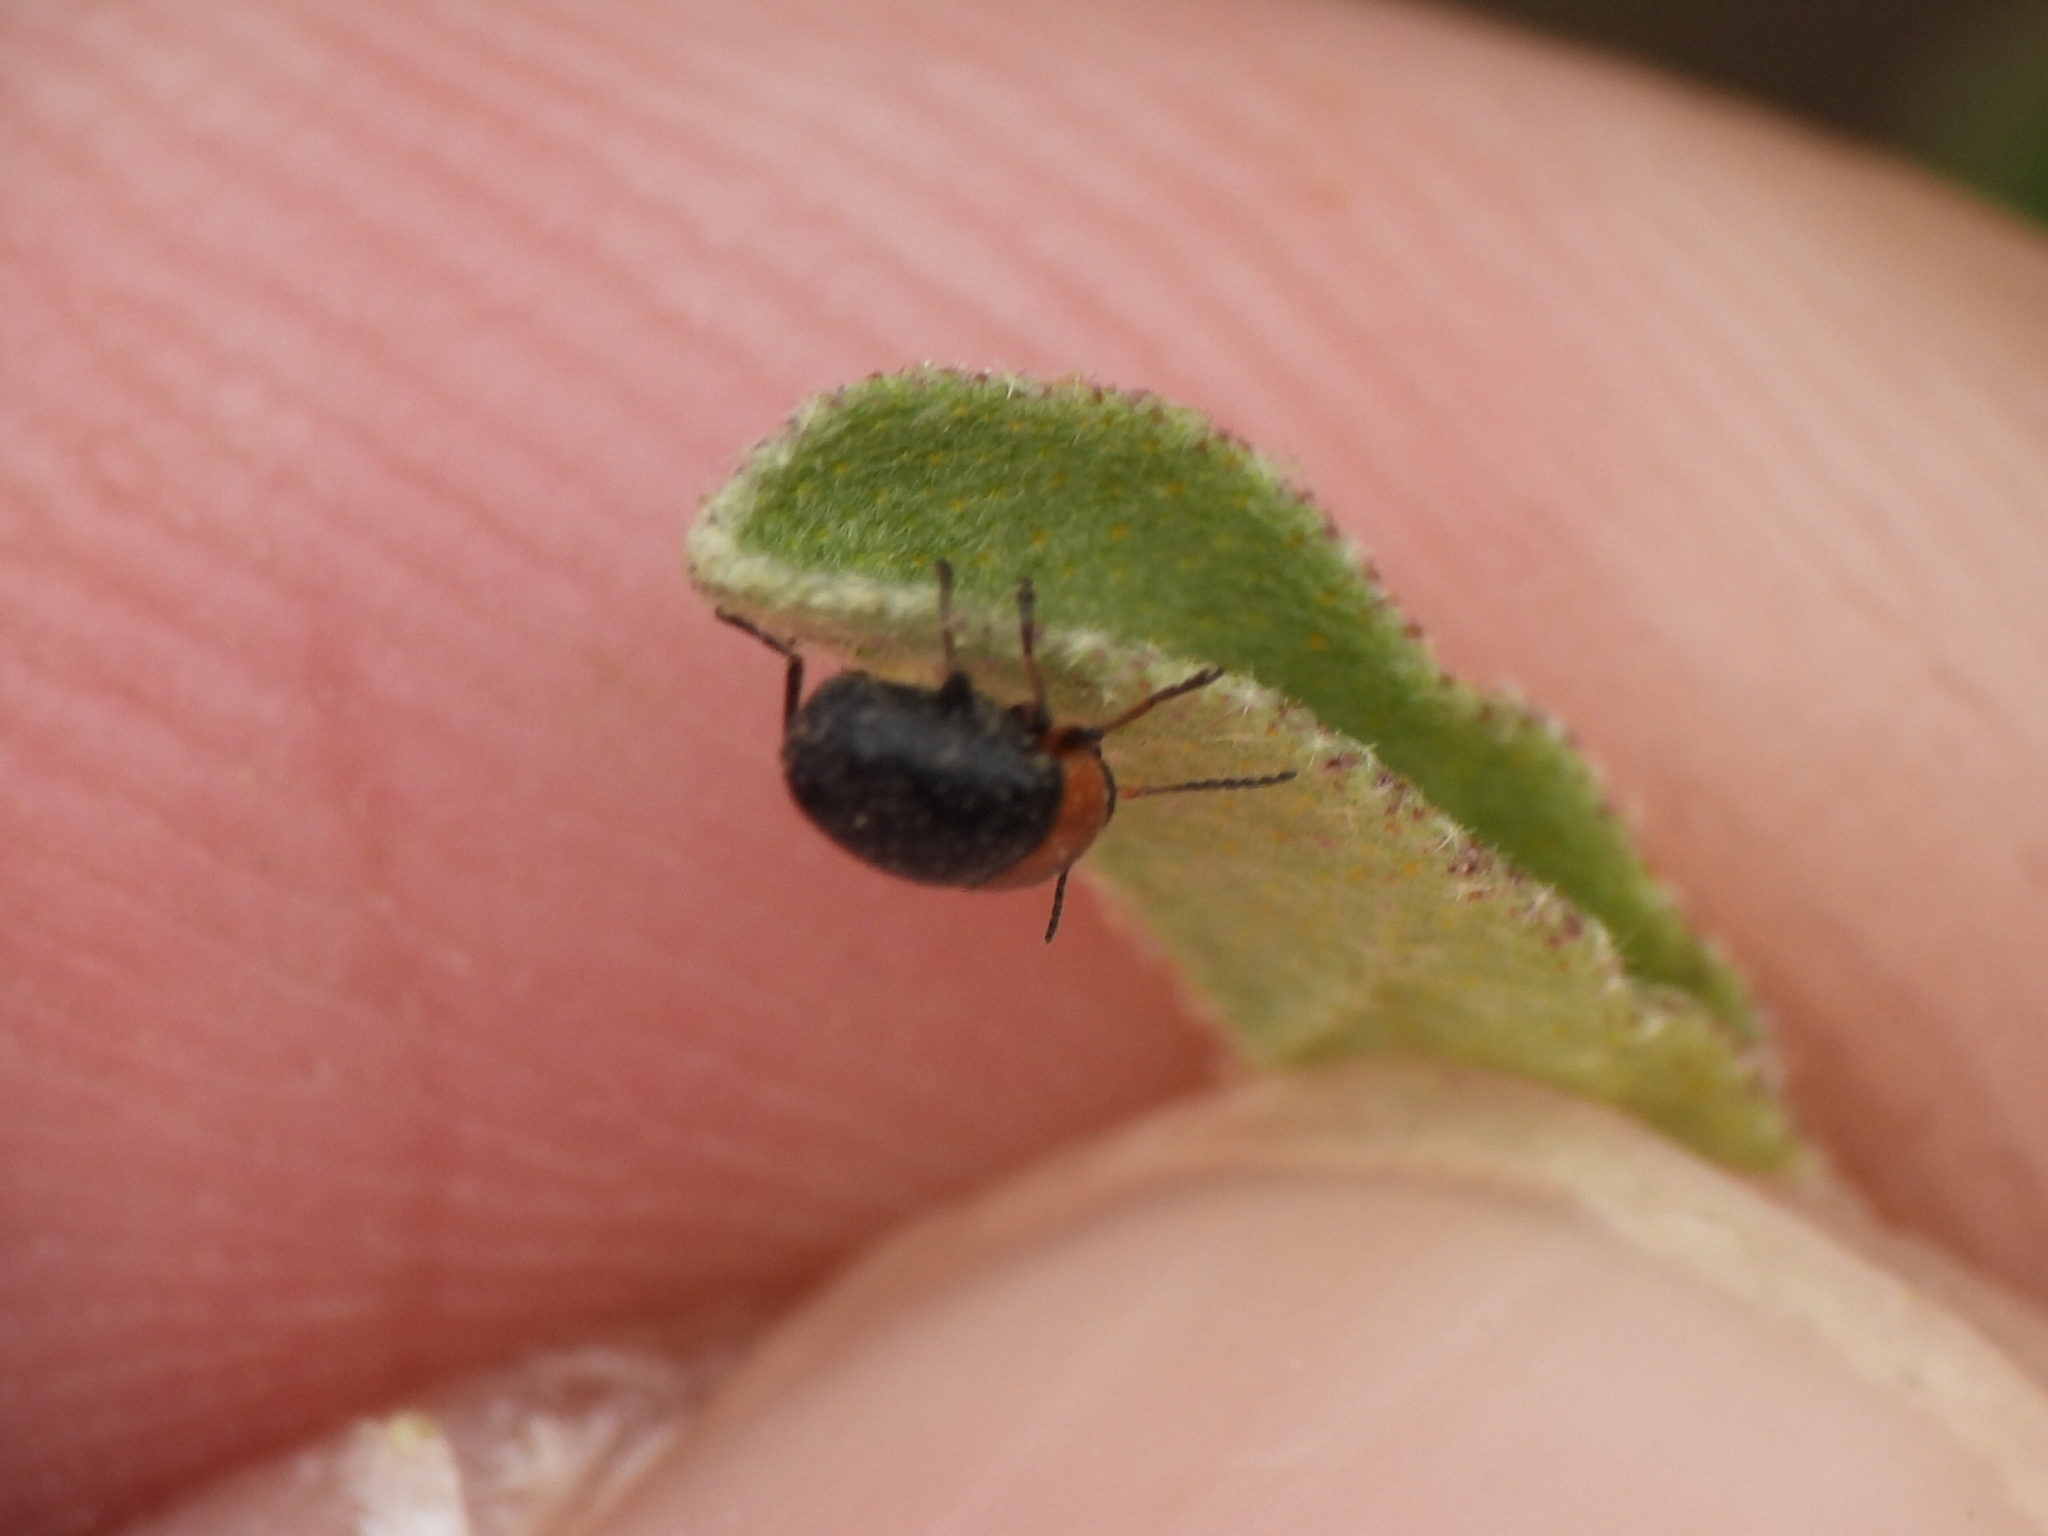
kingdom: Animalia
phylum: Arthropoda
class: Insecta
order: Coleoptera
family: Chrysomelidae
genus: Lexiphanes
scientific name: Lexiphanes teapensis
